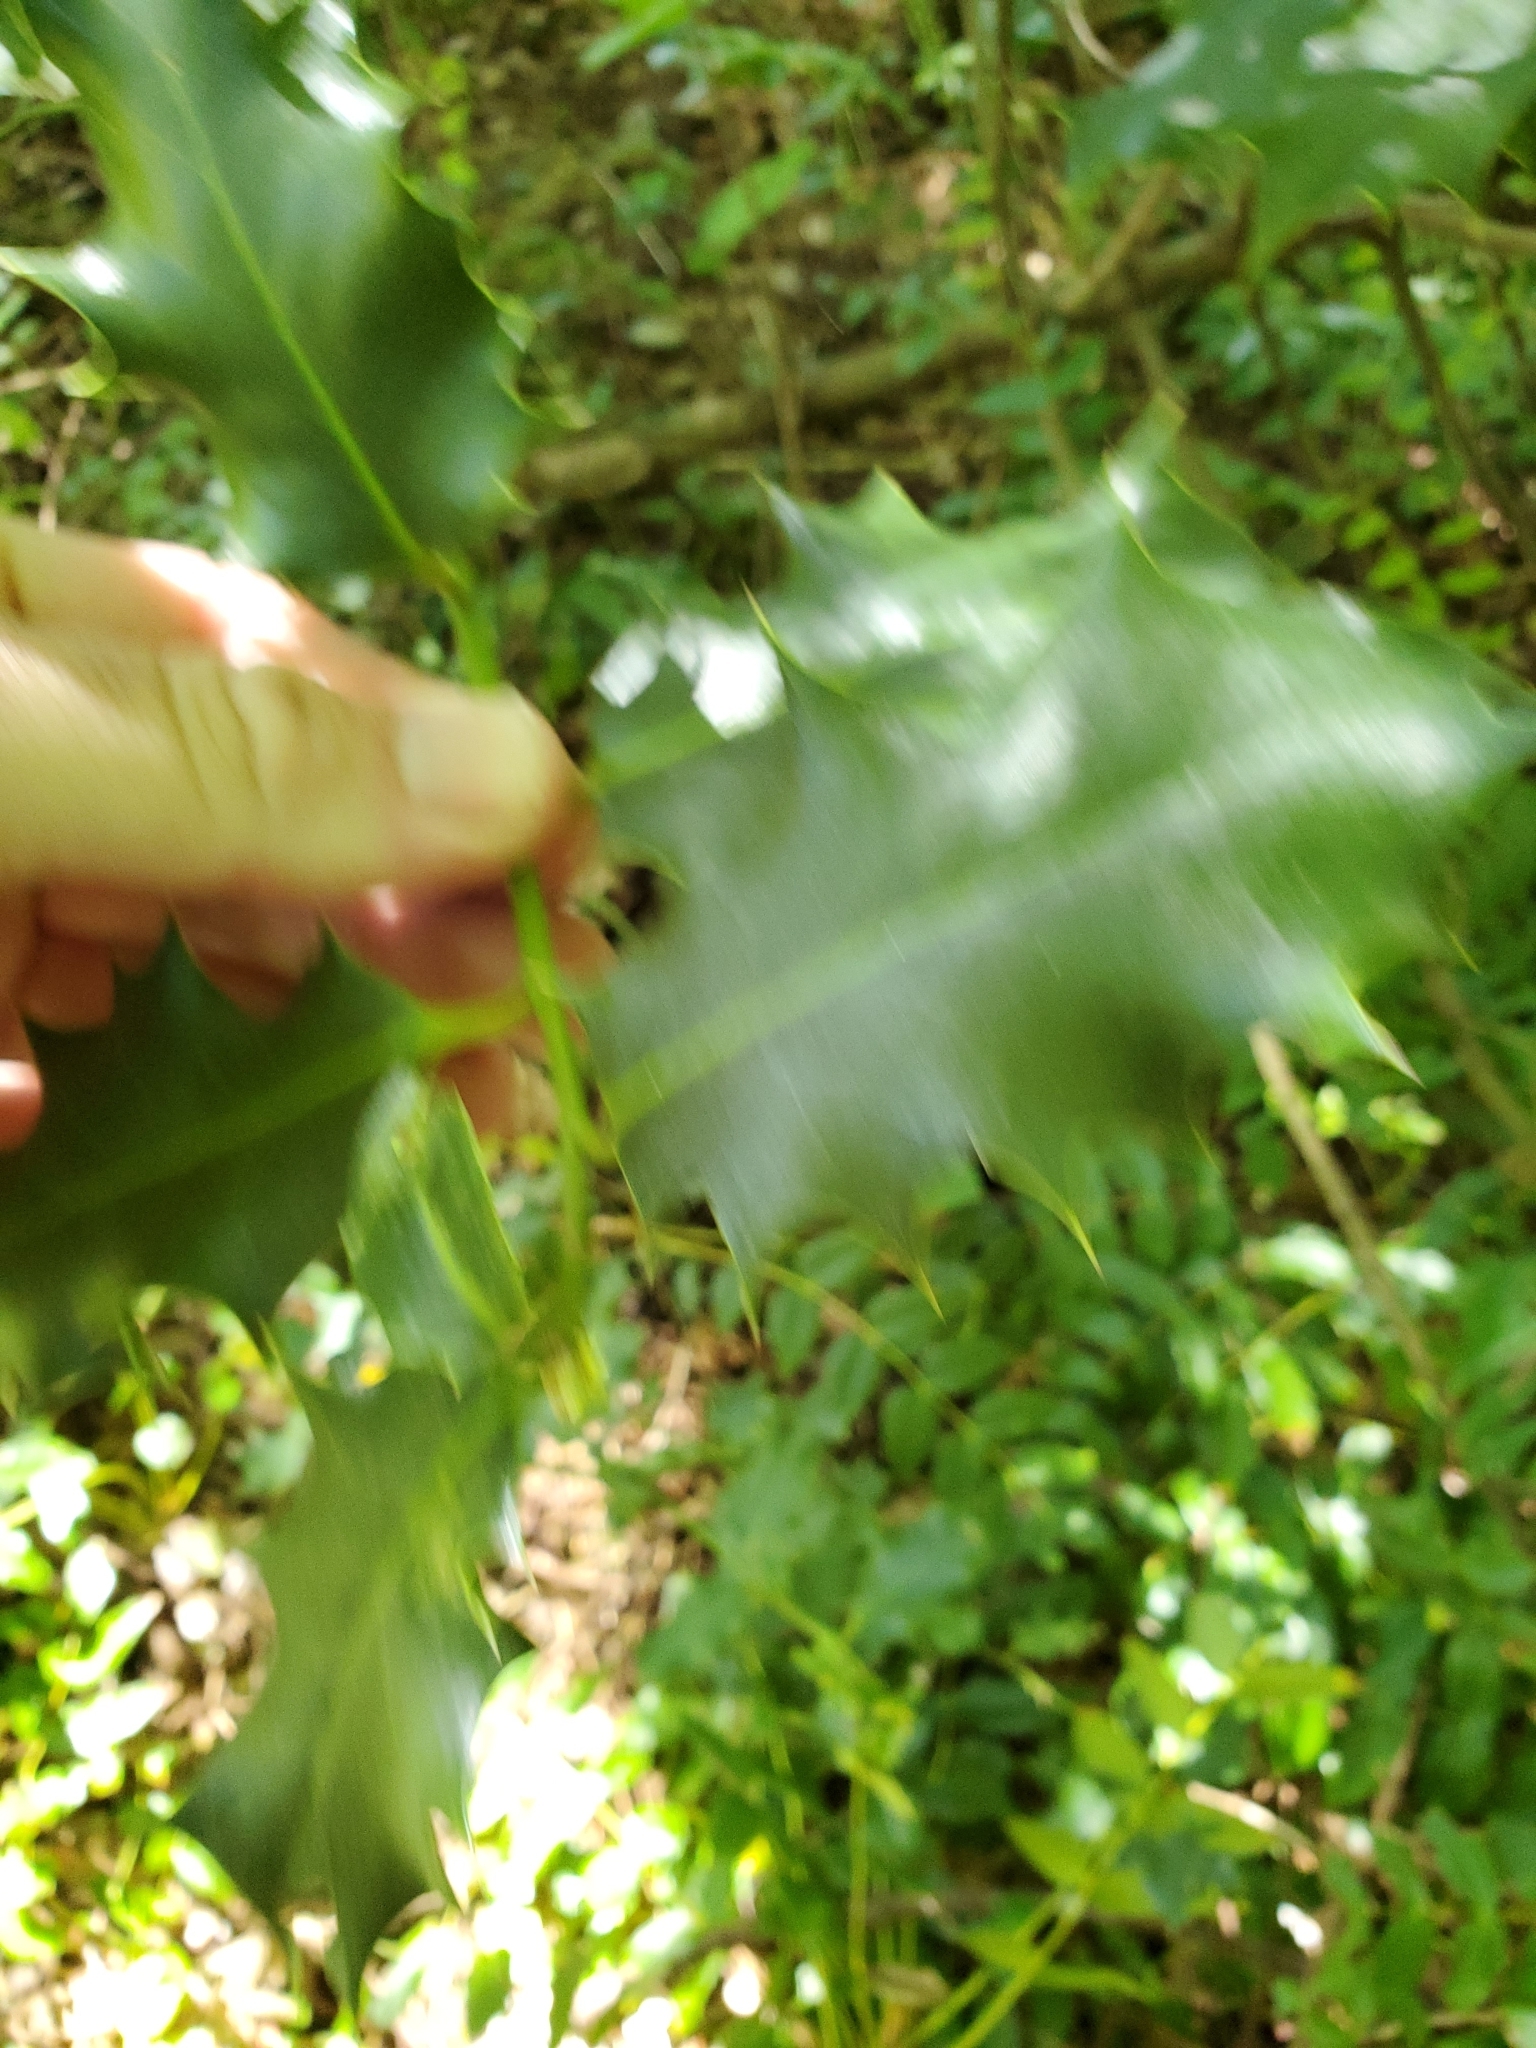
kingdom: Plantae
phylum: Tracheophyta
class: Magnoliopsida
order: Aquifoliales
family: Aquifoliaceae
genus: Ilex
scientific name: Ilex aquifolium
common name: English holly
